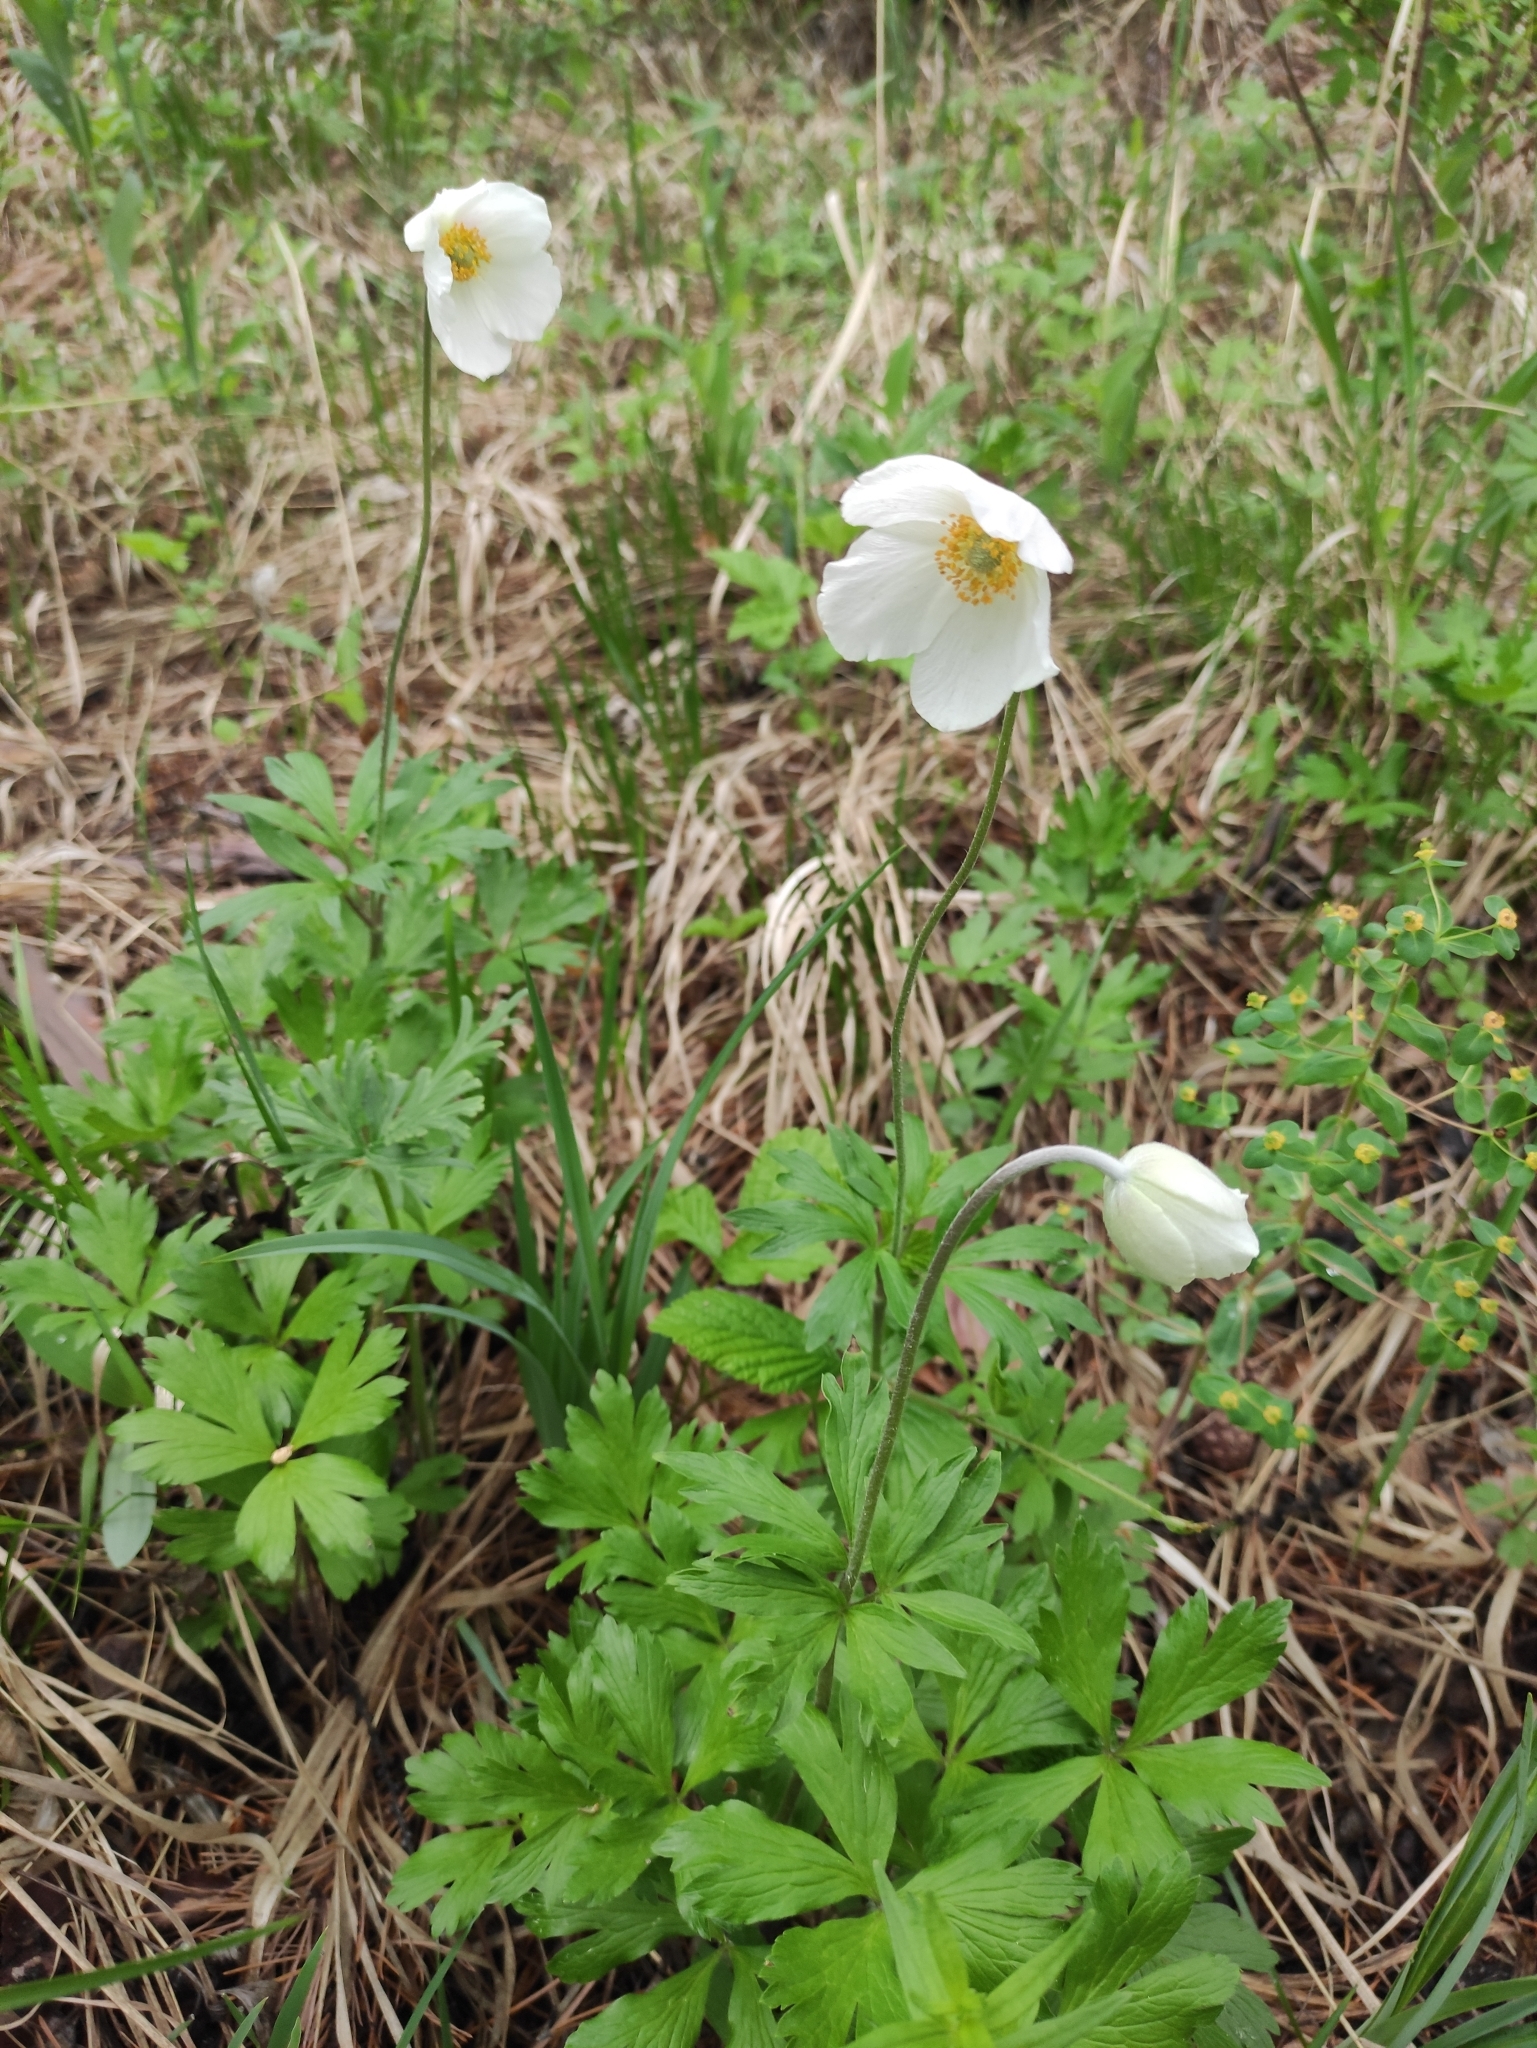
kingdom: Plantae
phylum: Tracheophyta
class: Magnoliopsida
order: Ranunculales
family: Ranunculaceae
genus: Anemone
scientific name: Anemone sylvestris
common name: Snowdrop anemone
